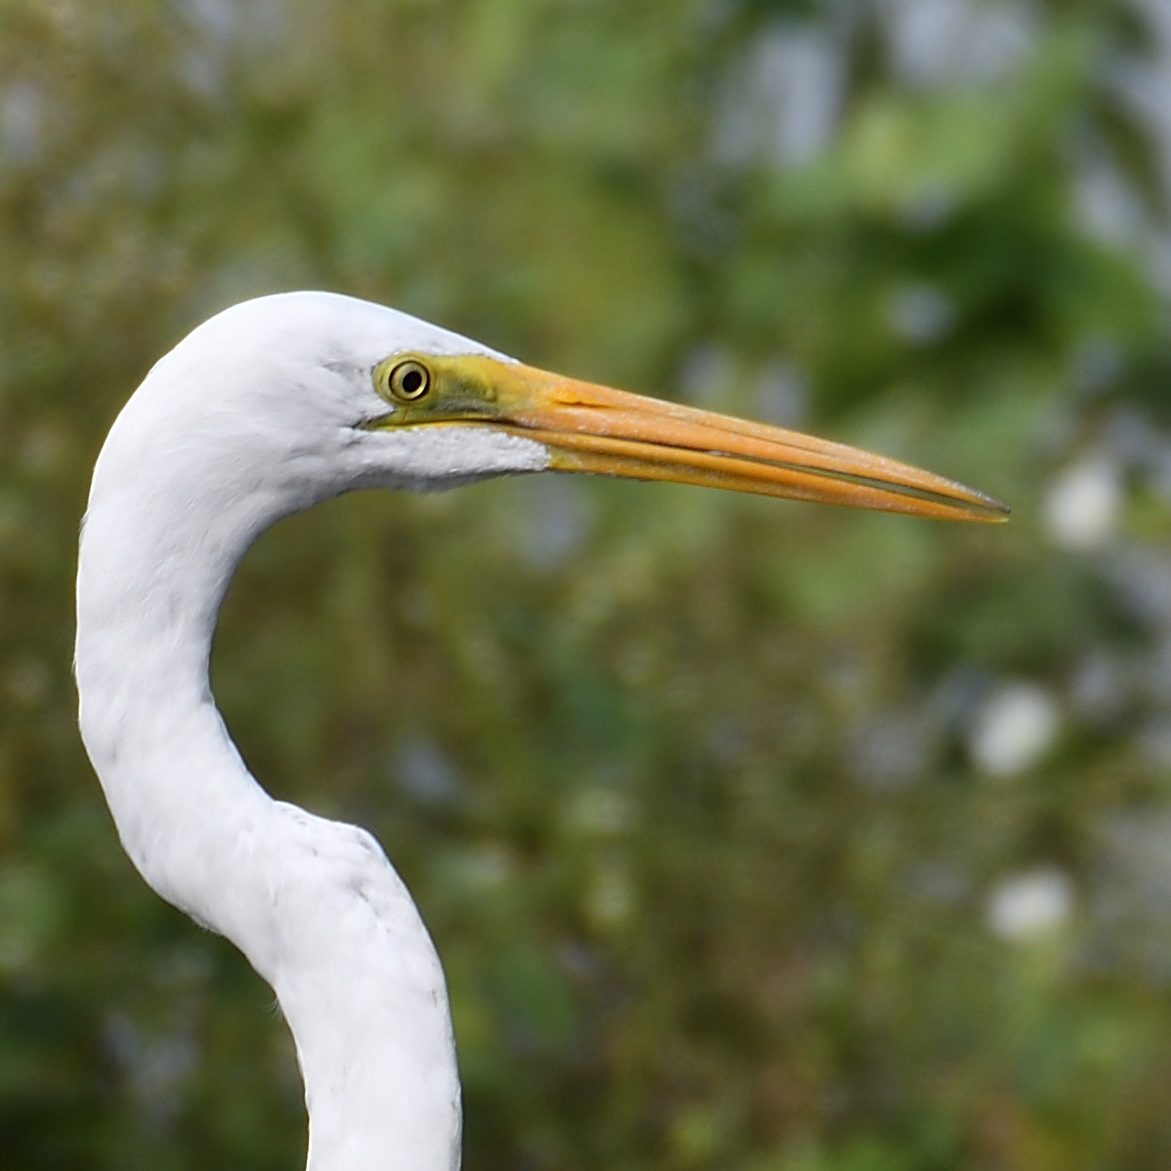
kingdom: Animalia
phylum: Chordata
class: Aves
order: Pelecaniformes
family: Ardeidae
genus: Ardea
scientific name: Ardea alba
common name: Great egret
